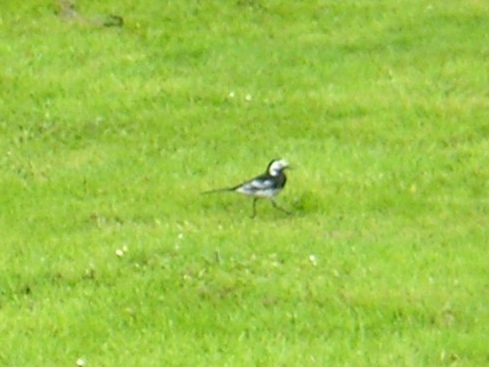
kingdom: Animalia
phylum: Chordata
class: Aves
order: Passeriformes
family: Motacillidae
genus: Motacilla
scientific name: Motacilla alba
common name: White wagtail
